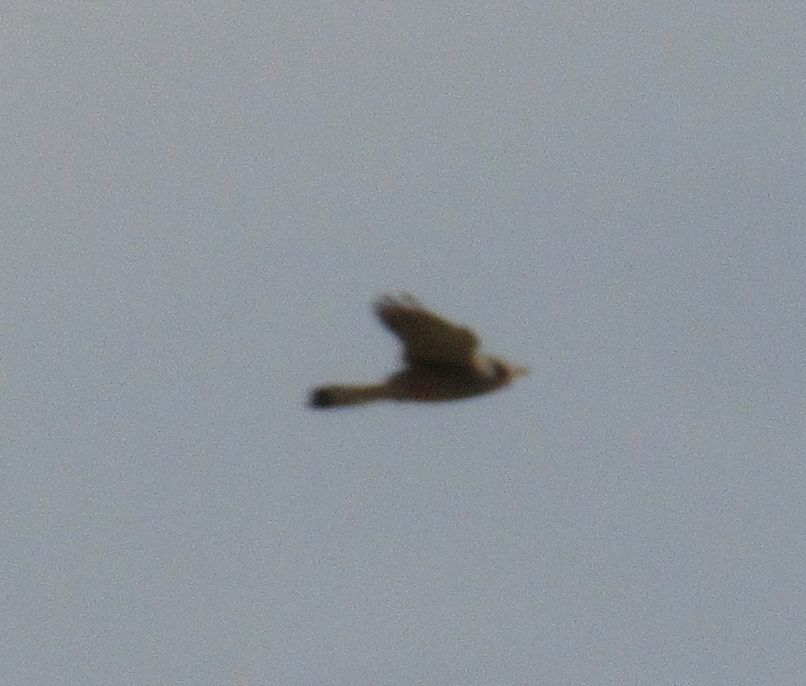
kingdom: Animalia
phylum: Chordata
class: Aves
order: Falconiformes
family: Falconidae
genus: Falco
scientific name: Falco tinnunculus
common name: Common kestrel
